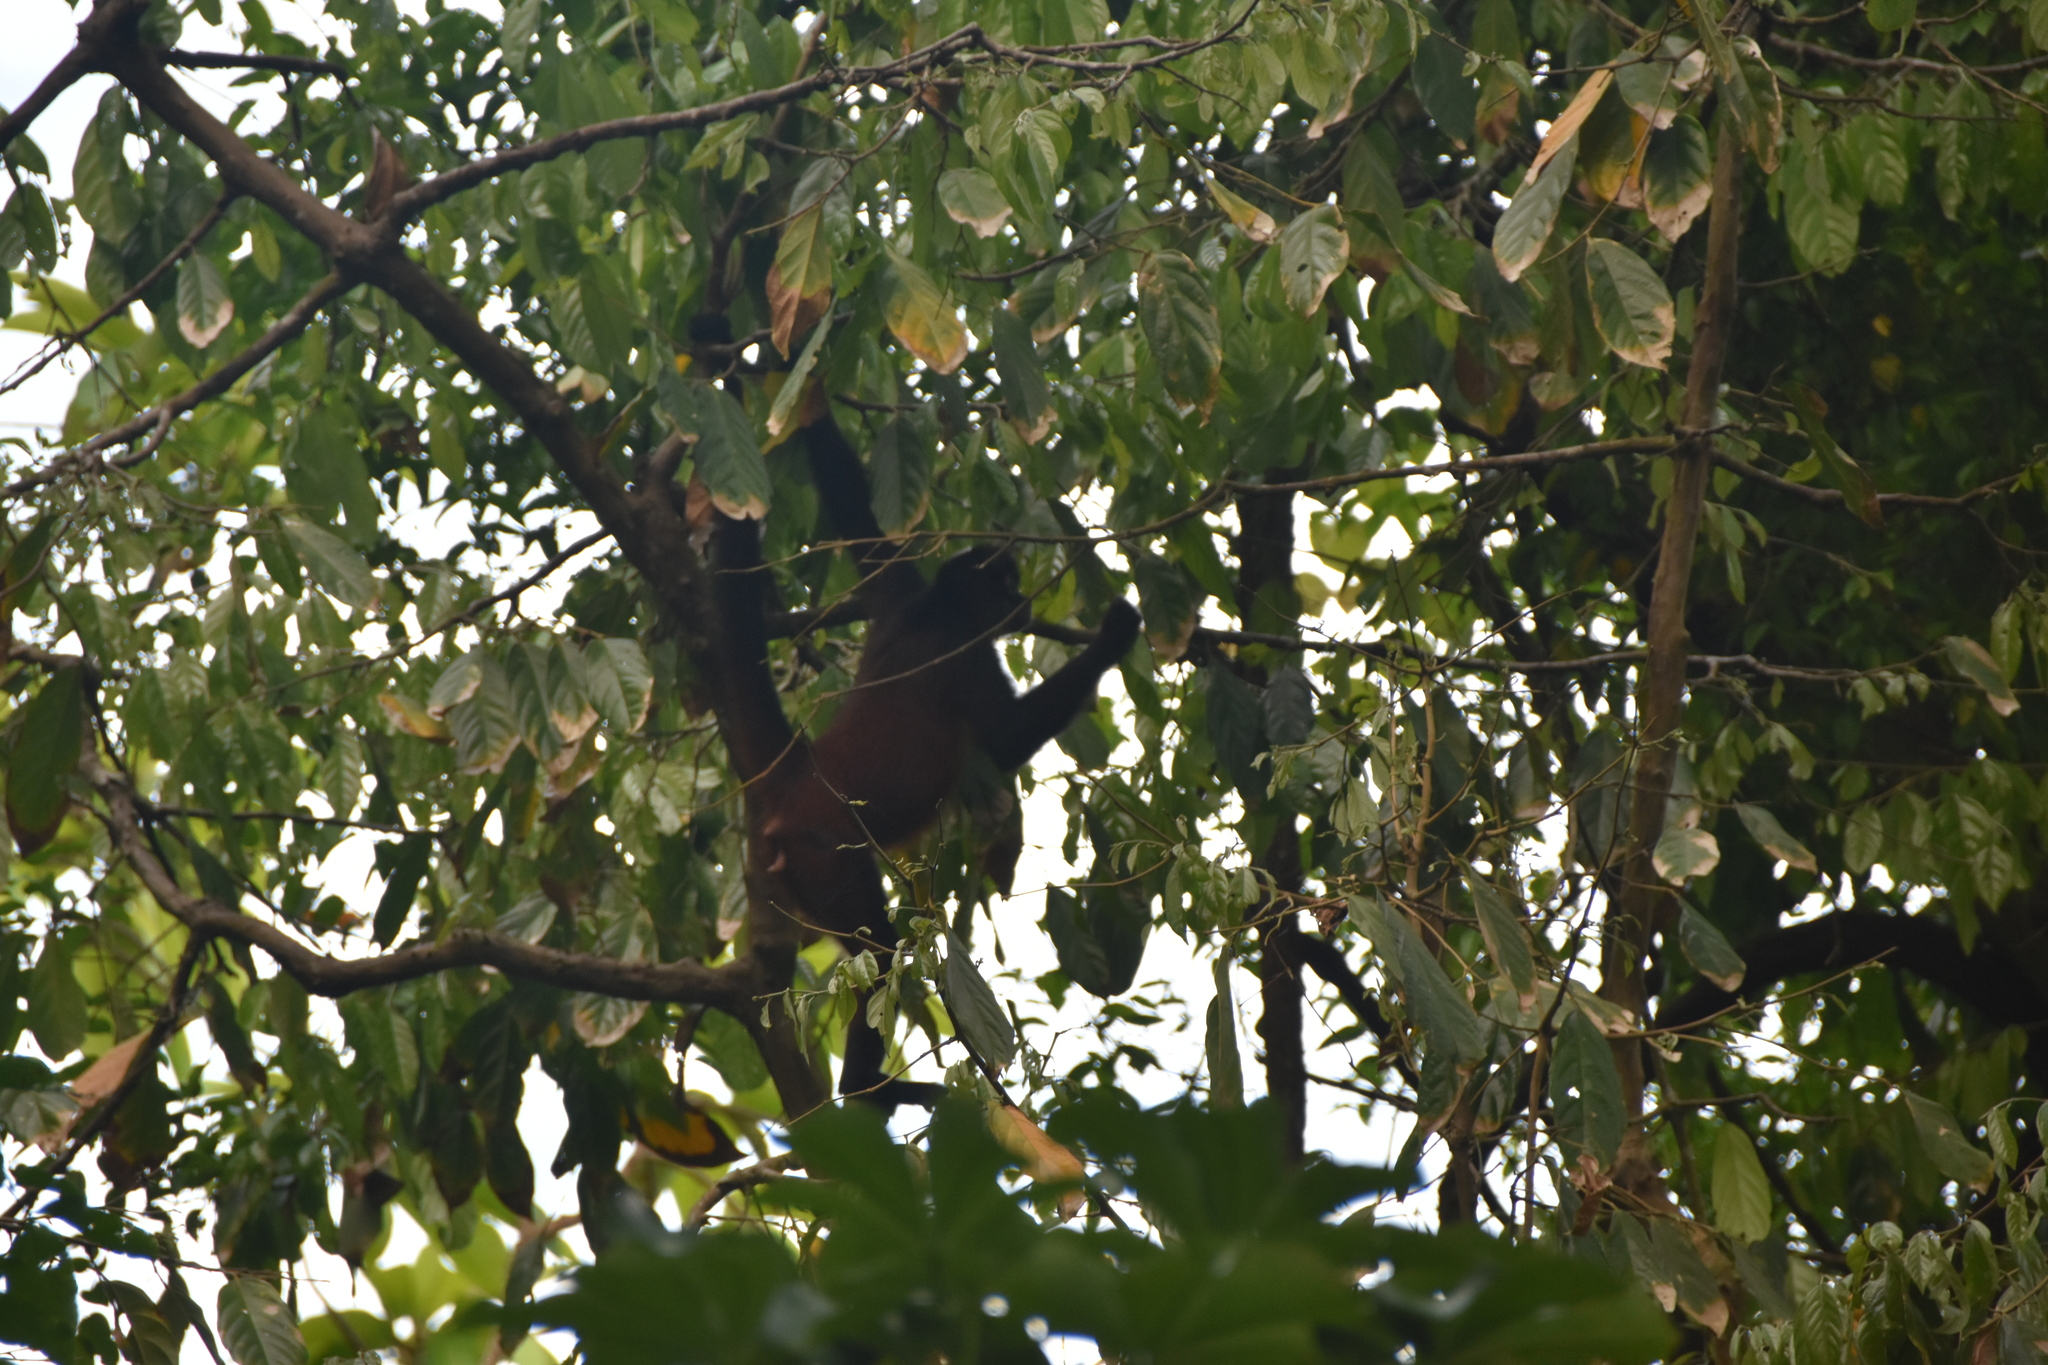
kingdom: Animalia
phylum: Chordata
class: Mammalia
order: Primates
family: Atelidae
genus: Ateles
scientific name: Ateles geoffroyi
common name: Black-handed spider monkey
